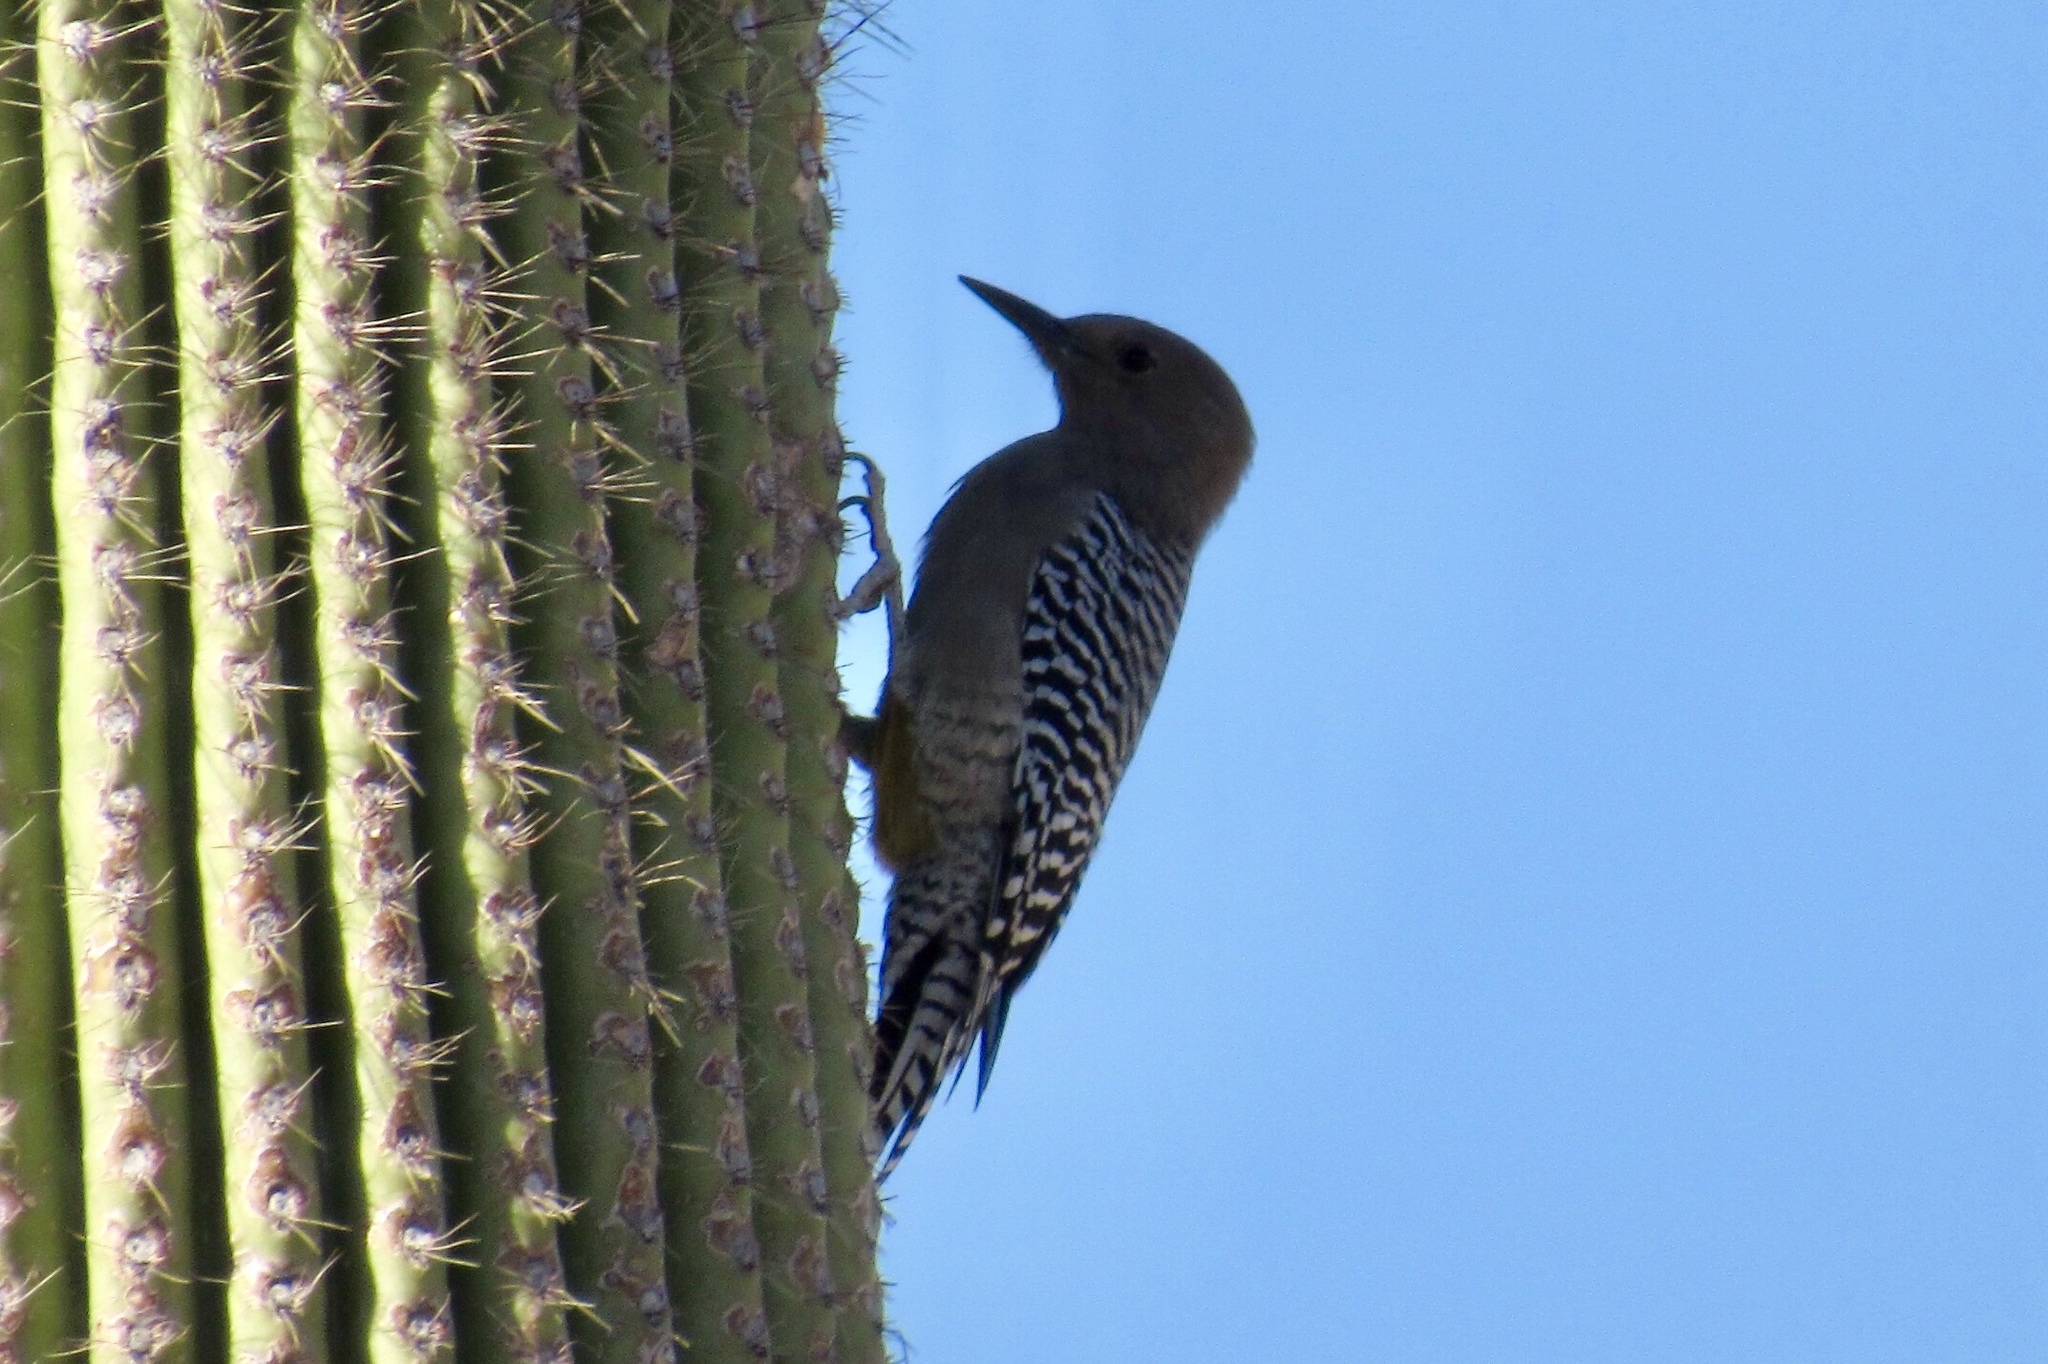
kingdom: Animalia
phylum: Chordata
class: Aves
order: Piciformes
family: Picidae
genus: Melanerpes
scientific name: Melanerpes uropygialis
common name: Gila woodpecker
